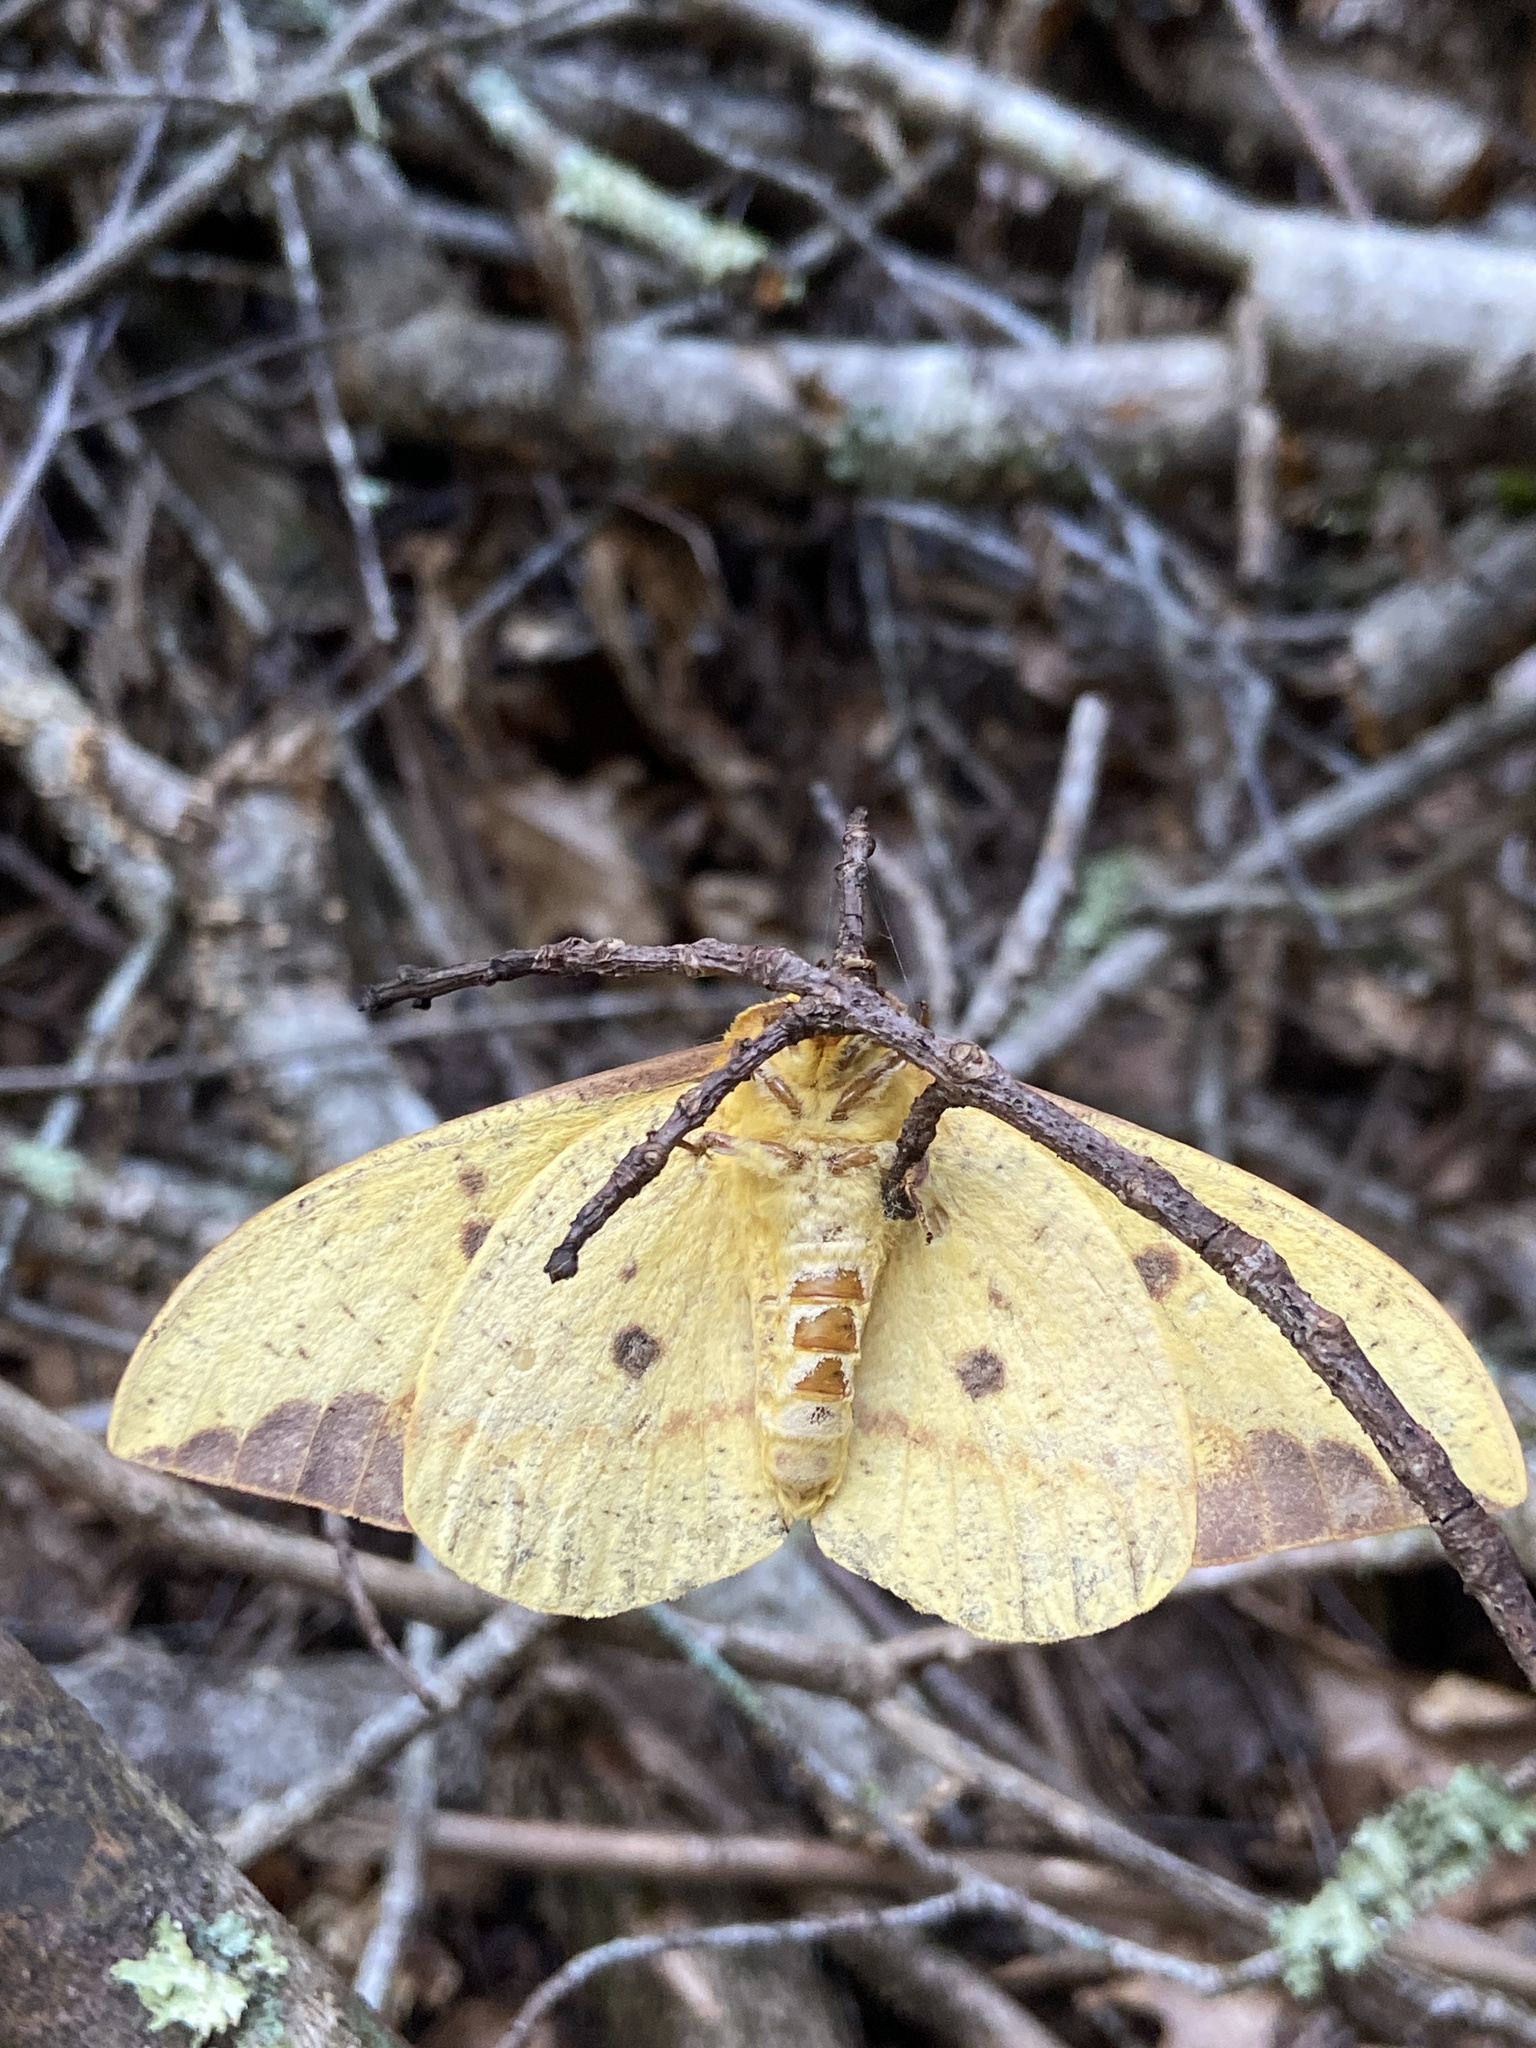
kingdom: Animalia
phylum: Arthropoda
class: Insecta
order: Lepidoptera
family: Saturniidae
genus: Eacles
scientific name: Eacles imperialis
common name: Imperial moth
